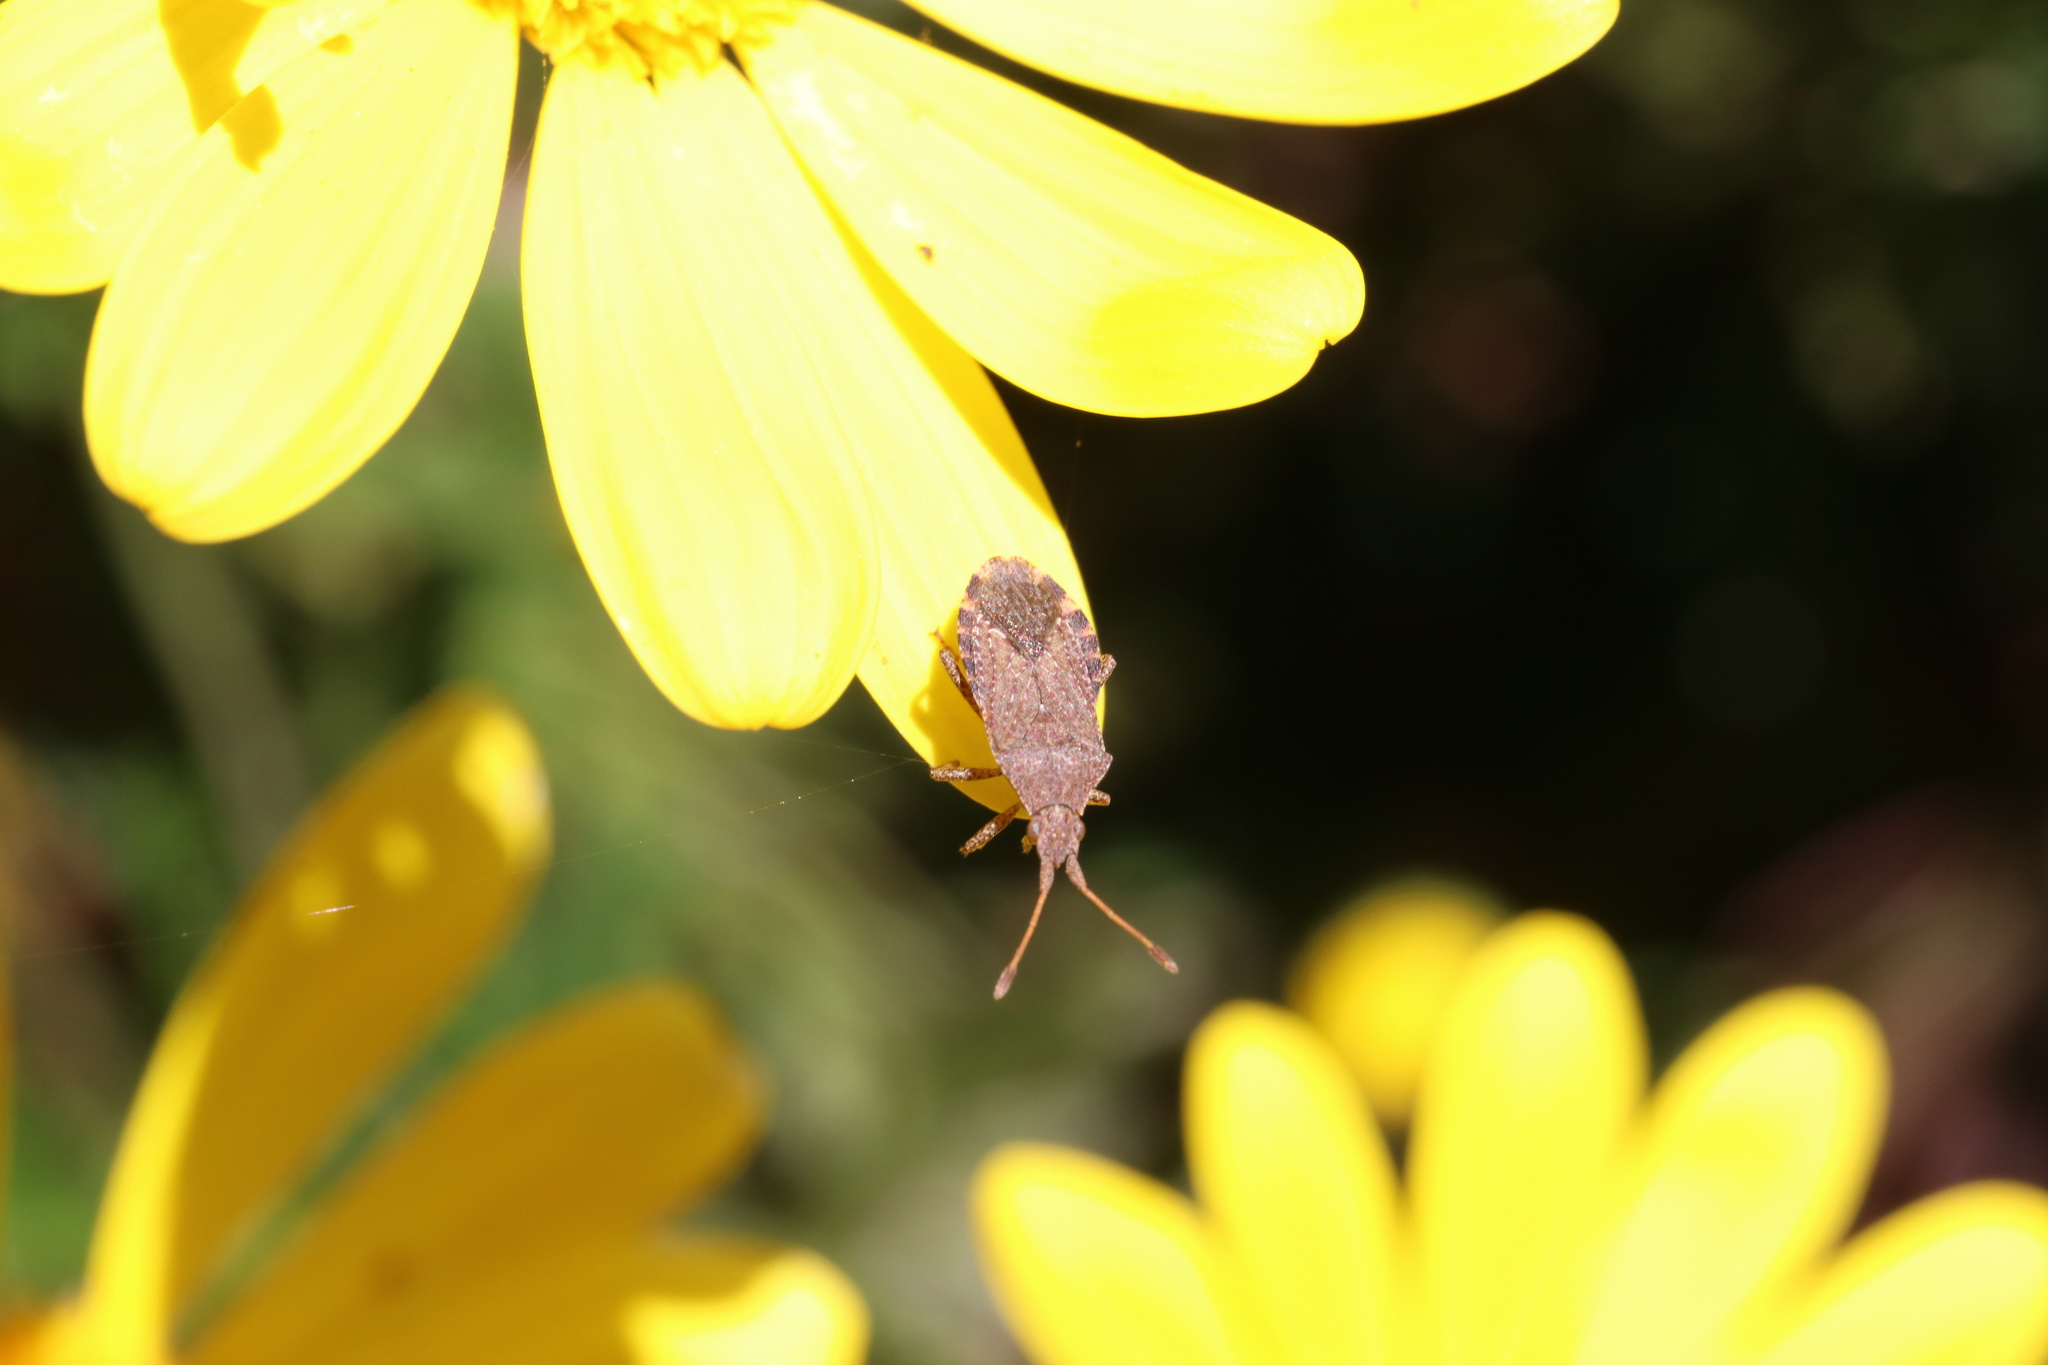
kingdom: Animalia
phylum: Arthropoda
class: Insecta
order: Hemiptera
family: Coreidae
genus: Althos
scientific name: Althos
